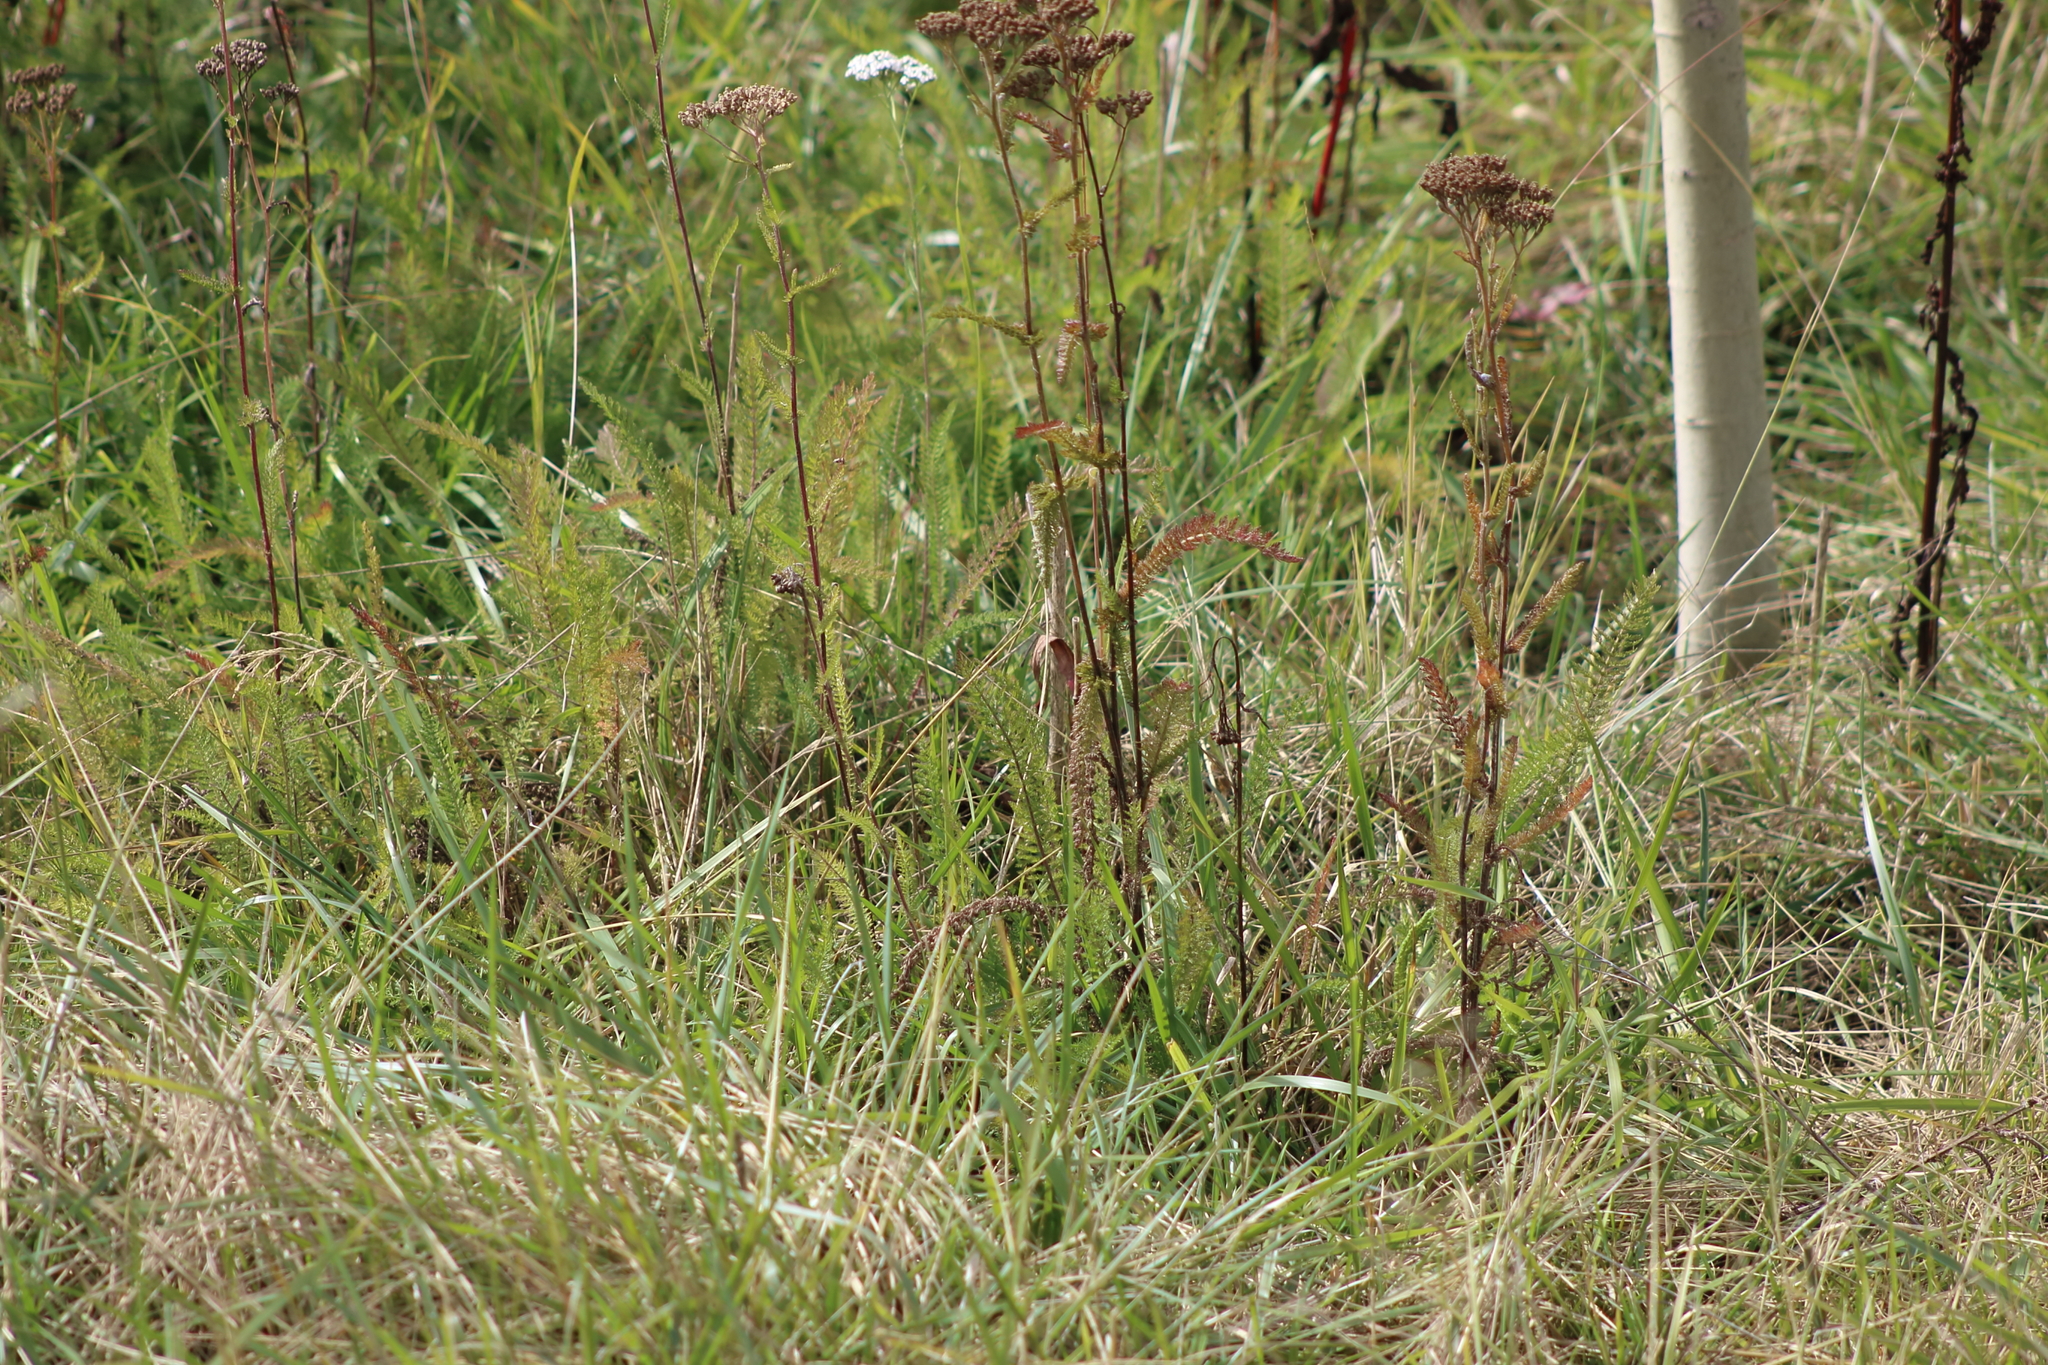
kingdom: Plantae
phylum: Tracheophyta
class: Magnoliopsida
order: Asterales
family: Asteraceae
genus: Achillea
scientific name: Achillea millefolium
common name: Yarrow
